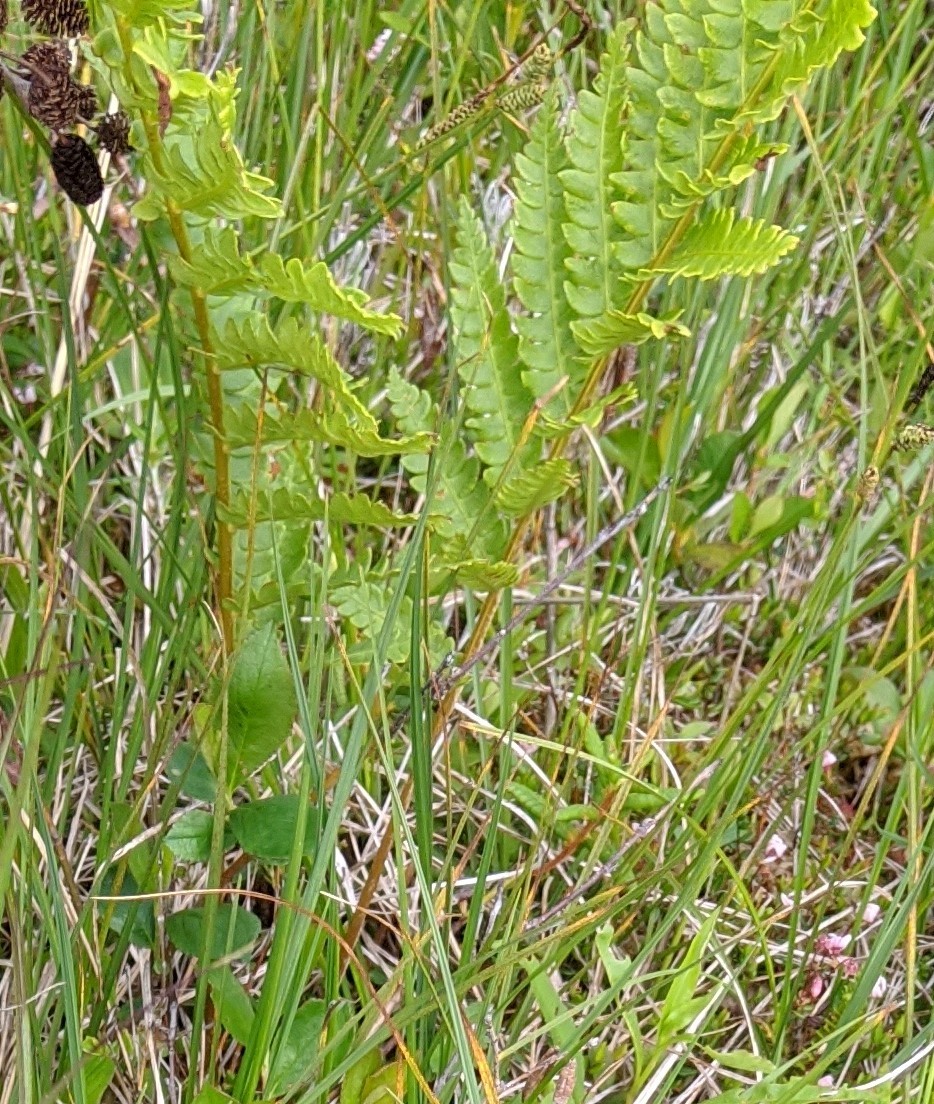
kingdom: Plantae
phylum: Tracheophyta
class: Polypodiopsida
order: Osmundales
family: Osmundaceae
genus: Osmundastrum
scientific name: Osmundastrum cinnamomeum
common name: Cinnamon fern
